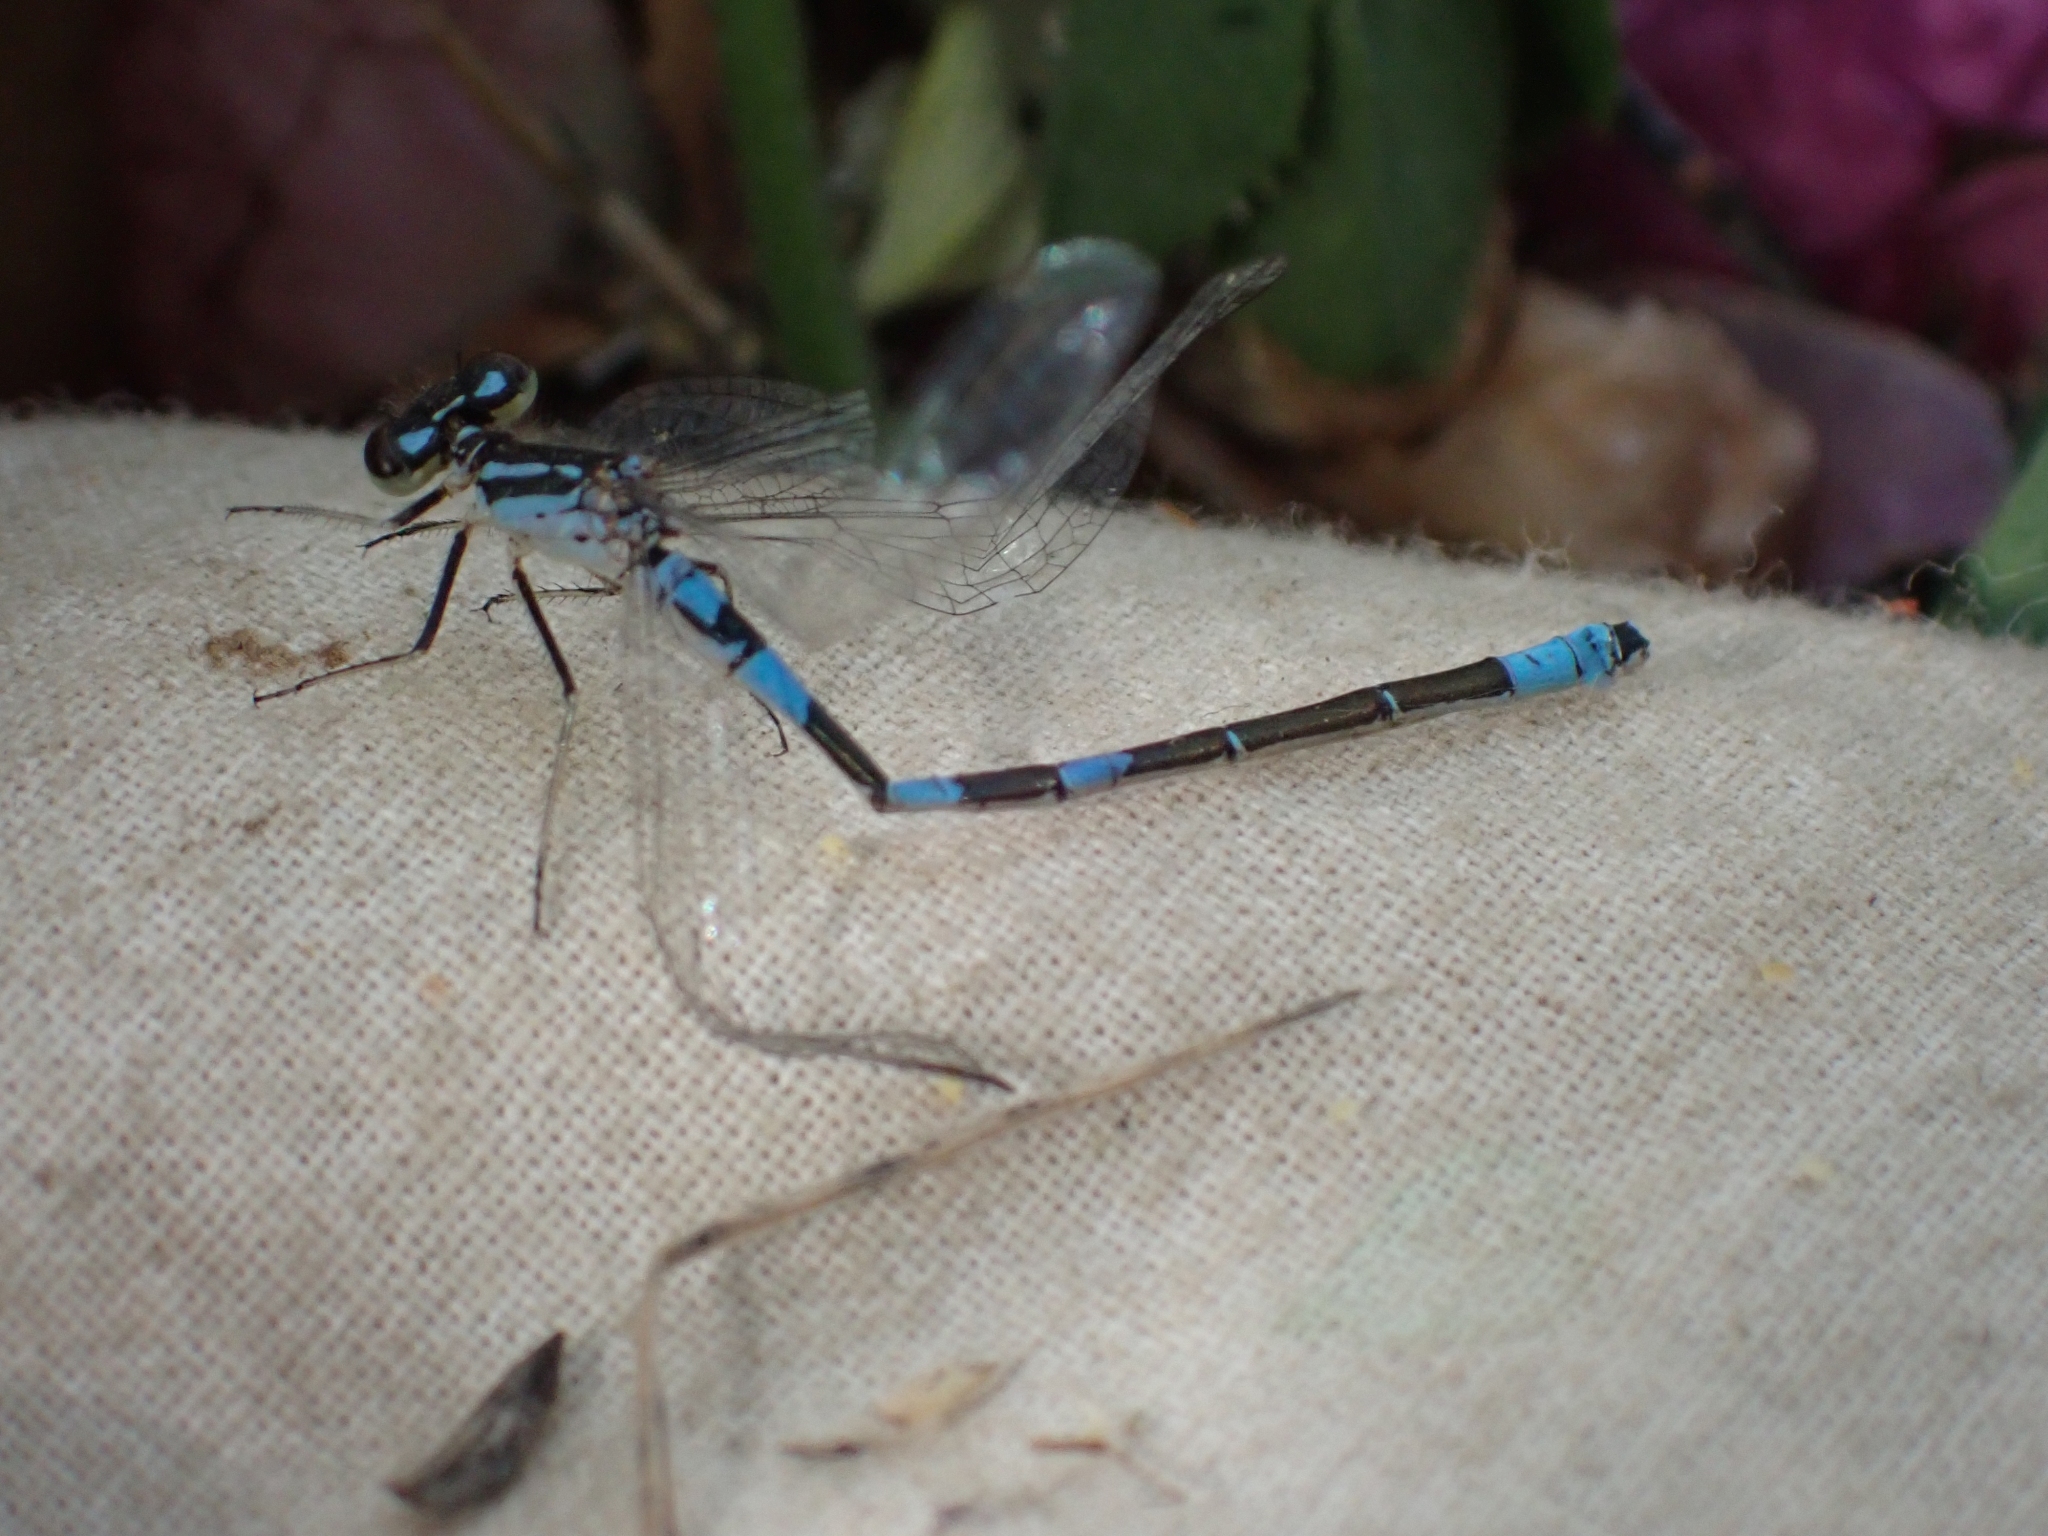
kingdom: Animalia
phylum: Arthropoda
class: Insecta
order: Odonata
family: Coenagrionidae
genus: Coenagrion
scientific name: Coenagrion resolutum
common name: Taiga bluet
